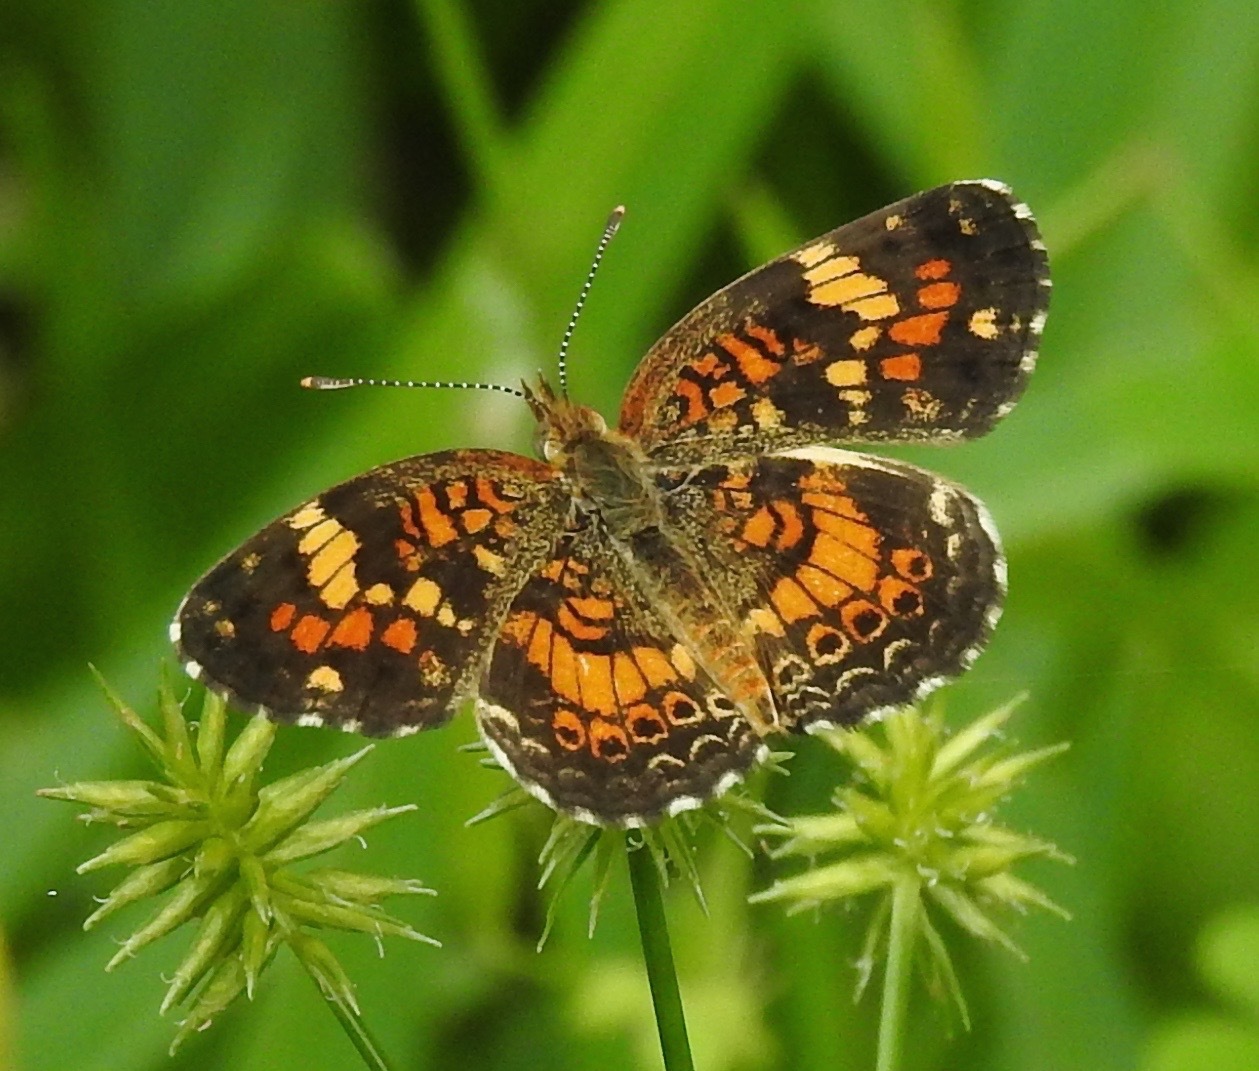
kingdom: Animalia
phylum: Arthropoda
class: Insecta
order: Lepidoptera
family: Nymphalidae
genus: Phyciodes
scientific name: Phyciodes phaon
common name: Phaon crescent
